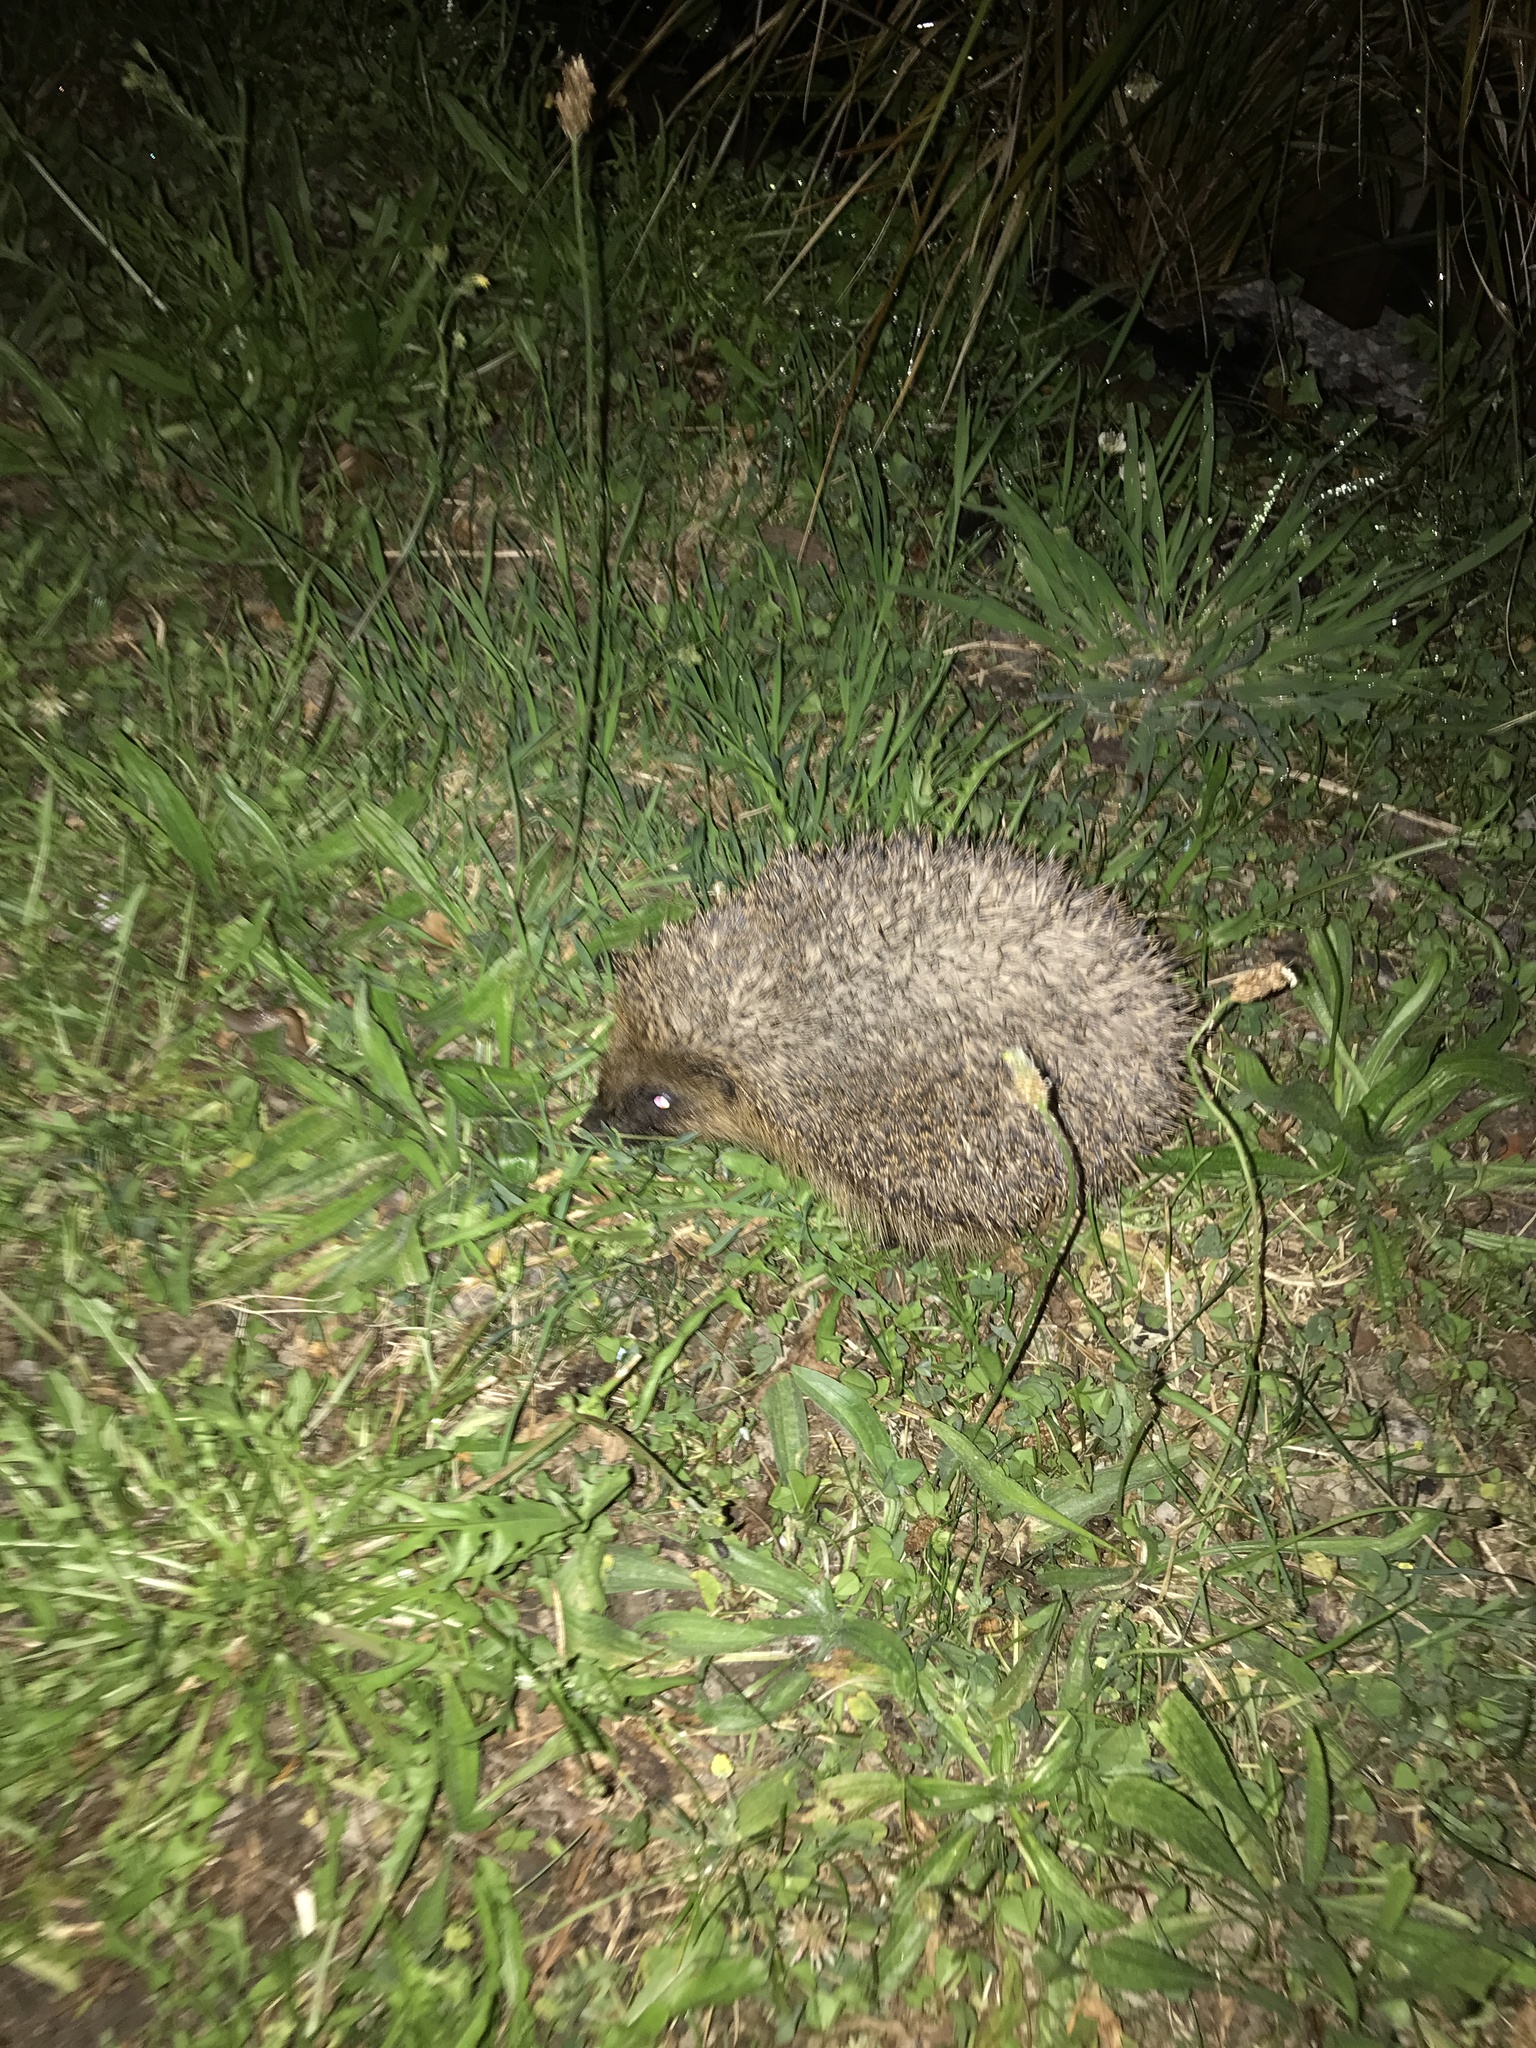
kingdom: Animalia
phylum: Chordata
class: Mammalia
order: Erinaceomorpha
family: Erinaceidae
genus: Erinaceus
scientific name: Erinaceus europaeus
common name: West european hedgehog
